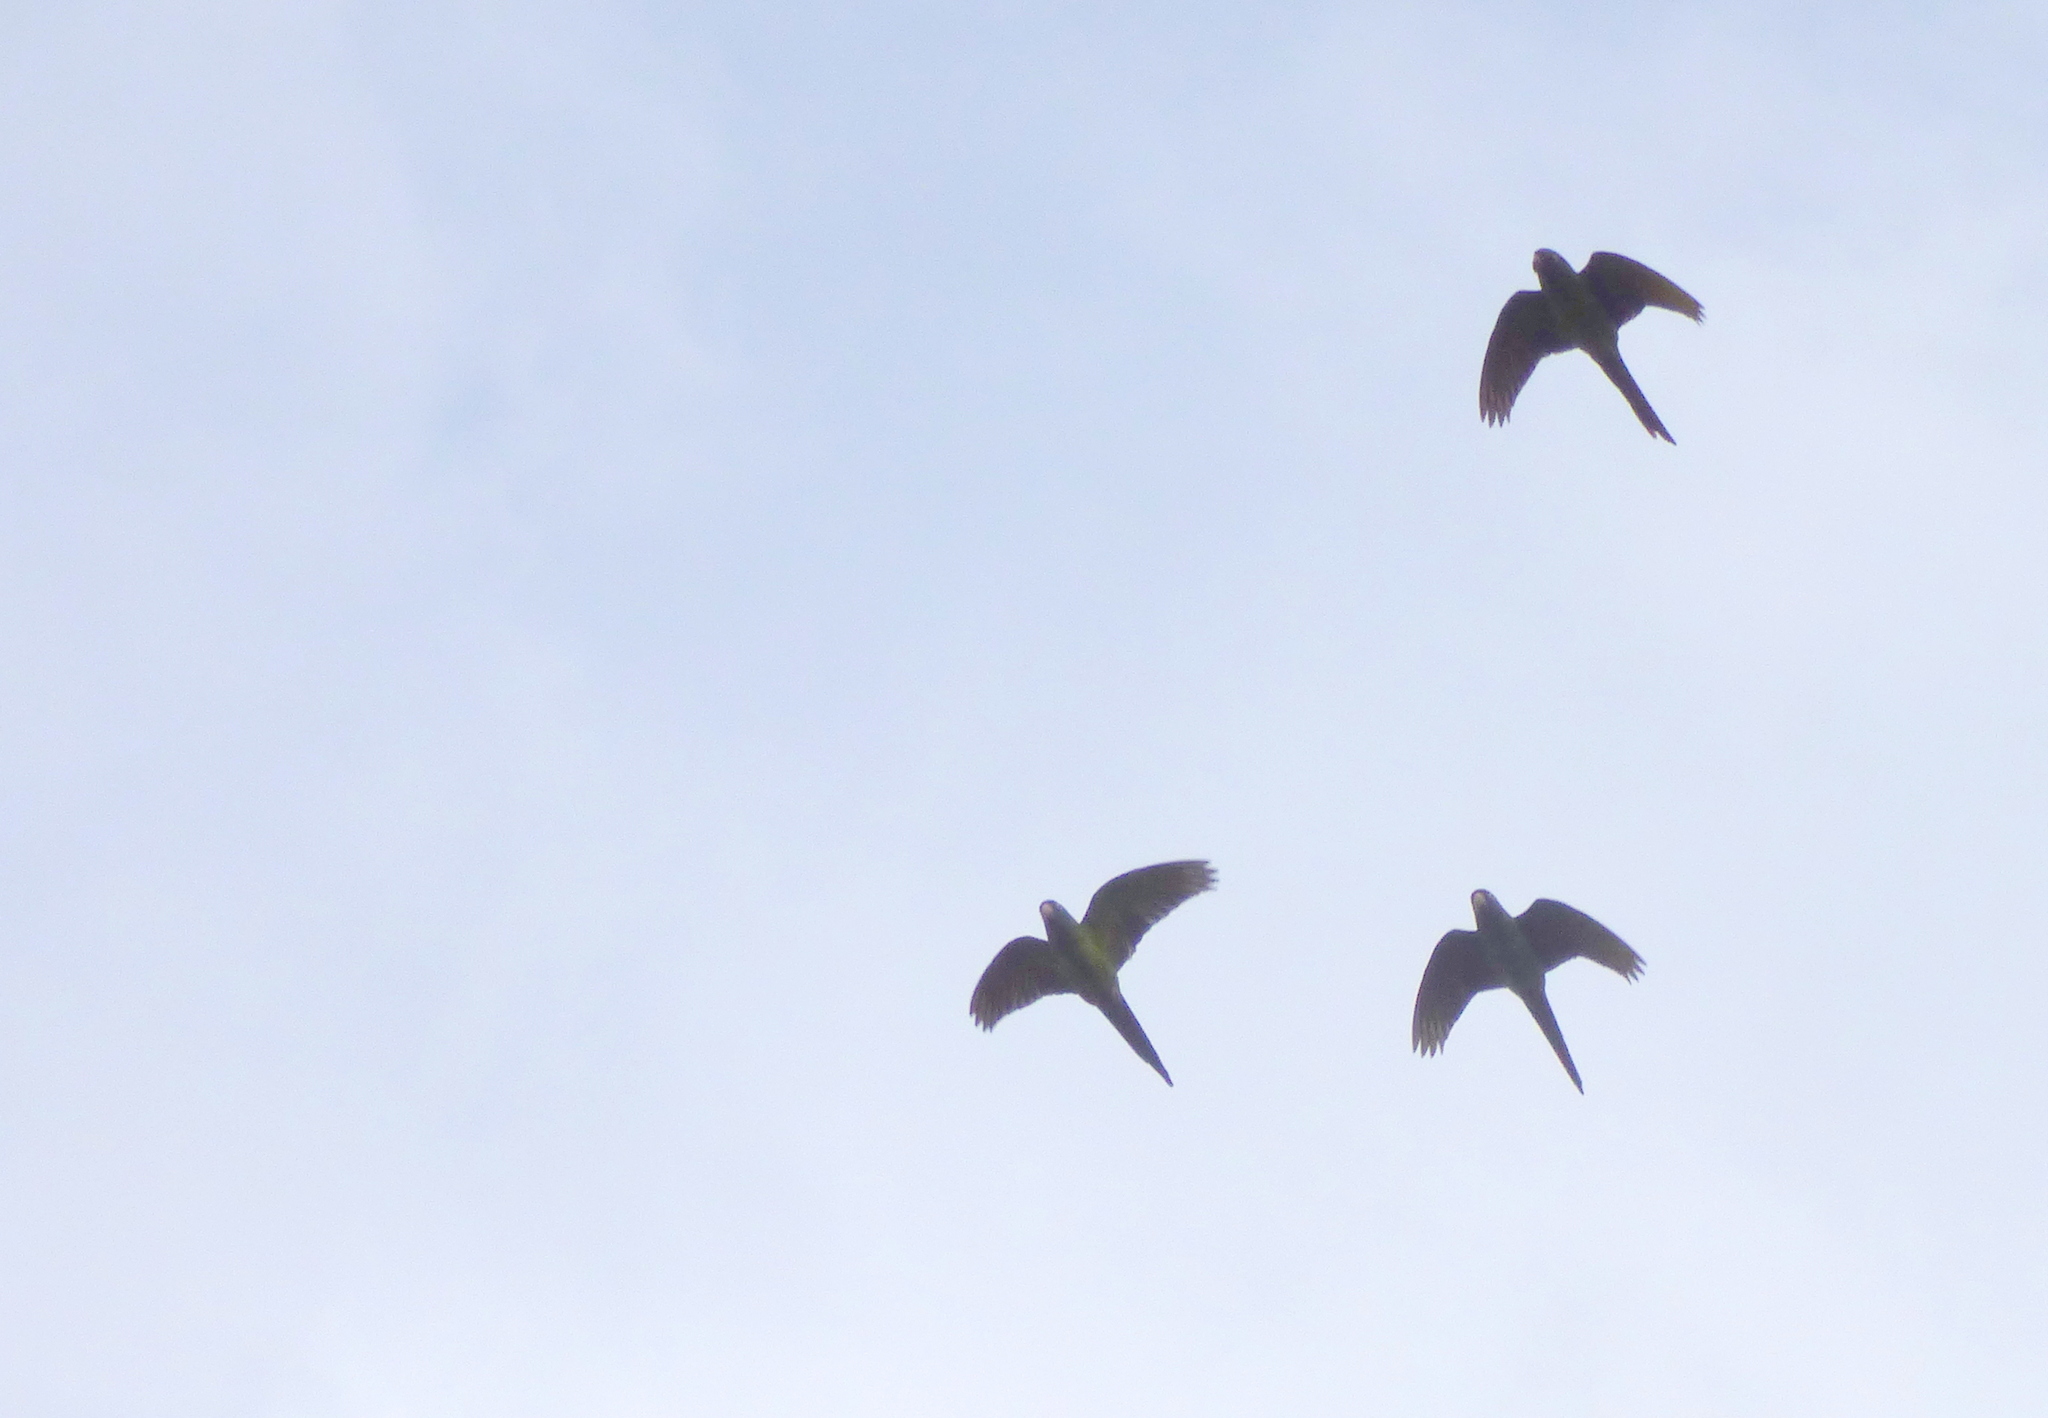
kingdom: Animalia
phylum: Chordata
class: Aves
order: Psittaciformes
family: Psittacidae
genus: Aratinga
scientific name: Aratinga acuticaudata
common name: Blue-crowned parakeet
